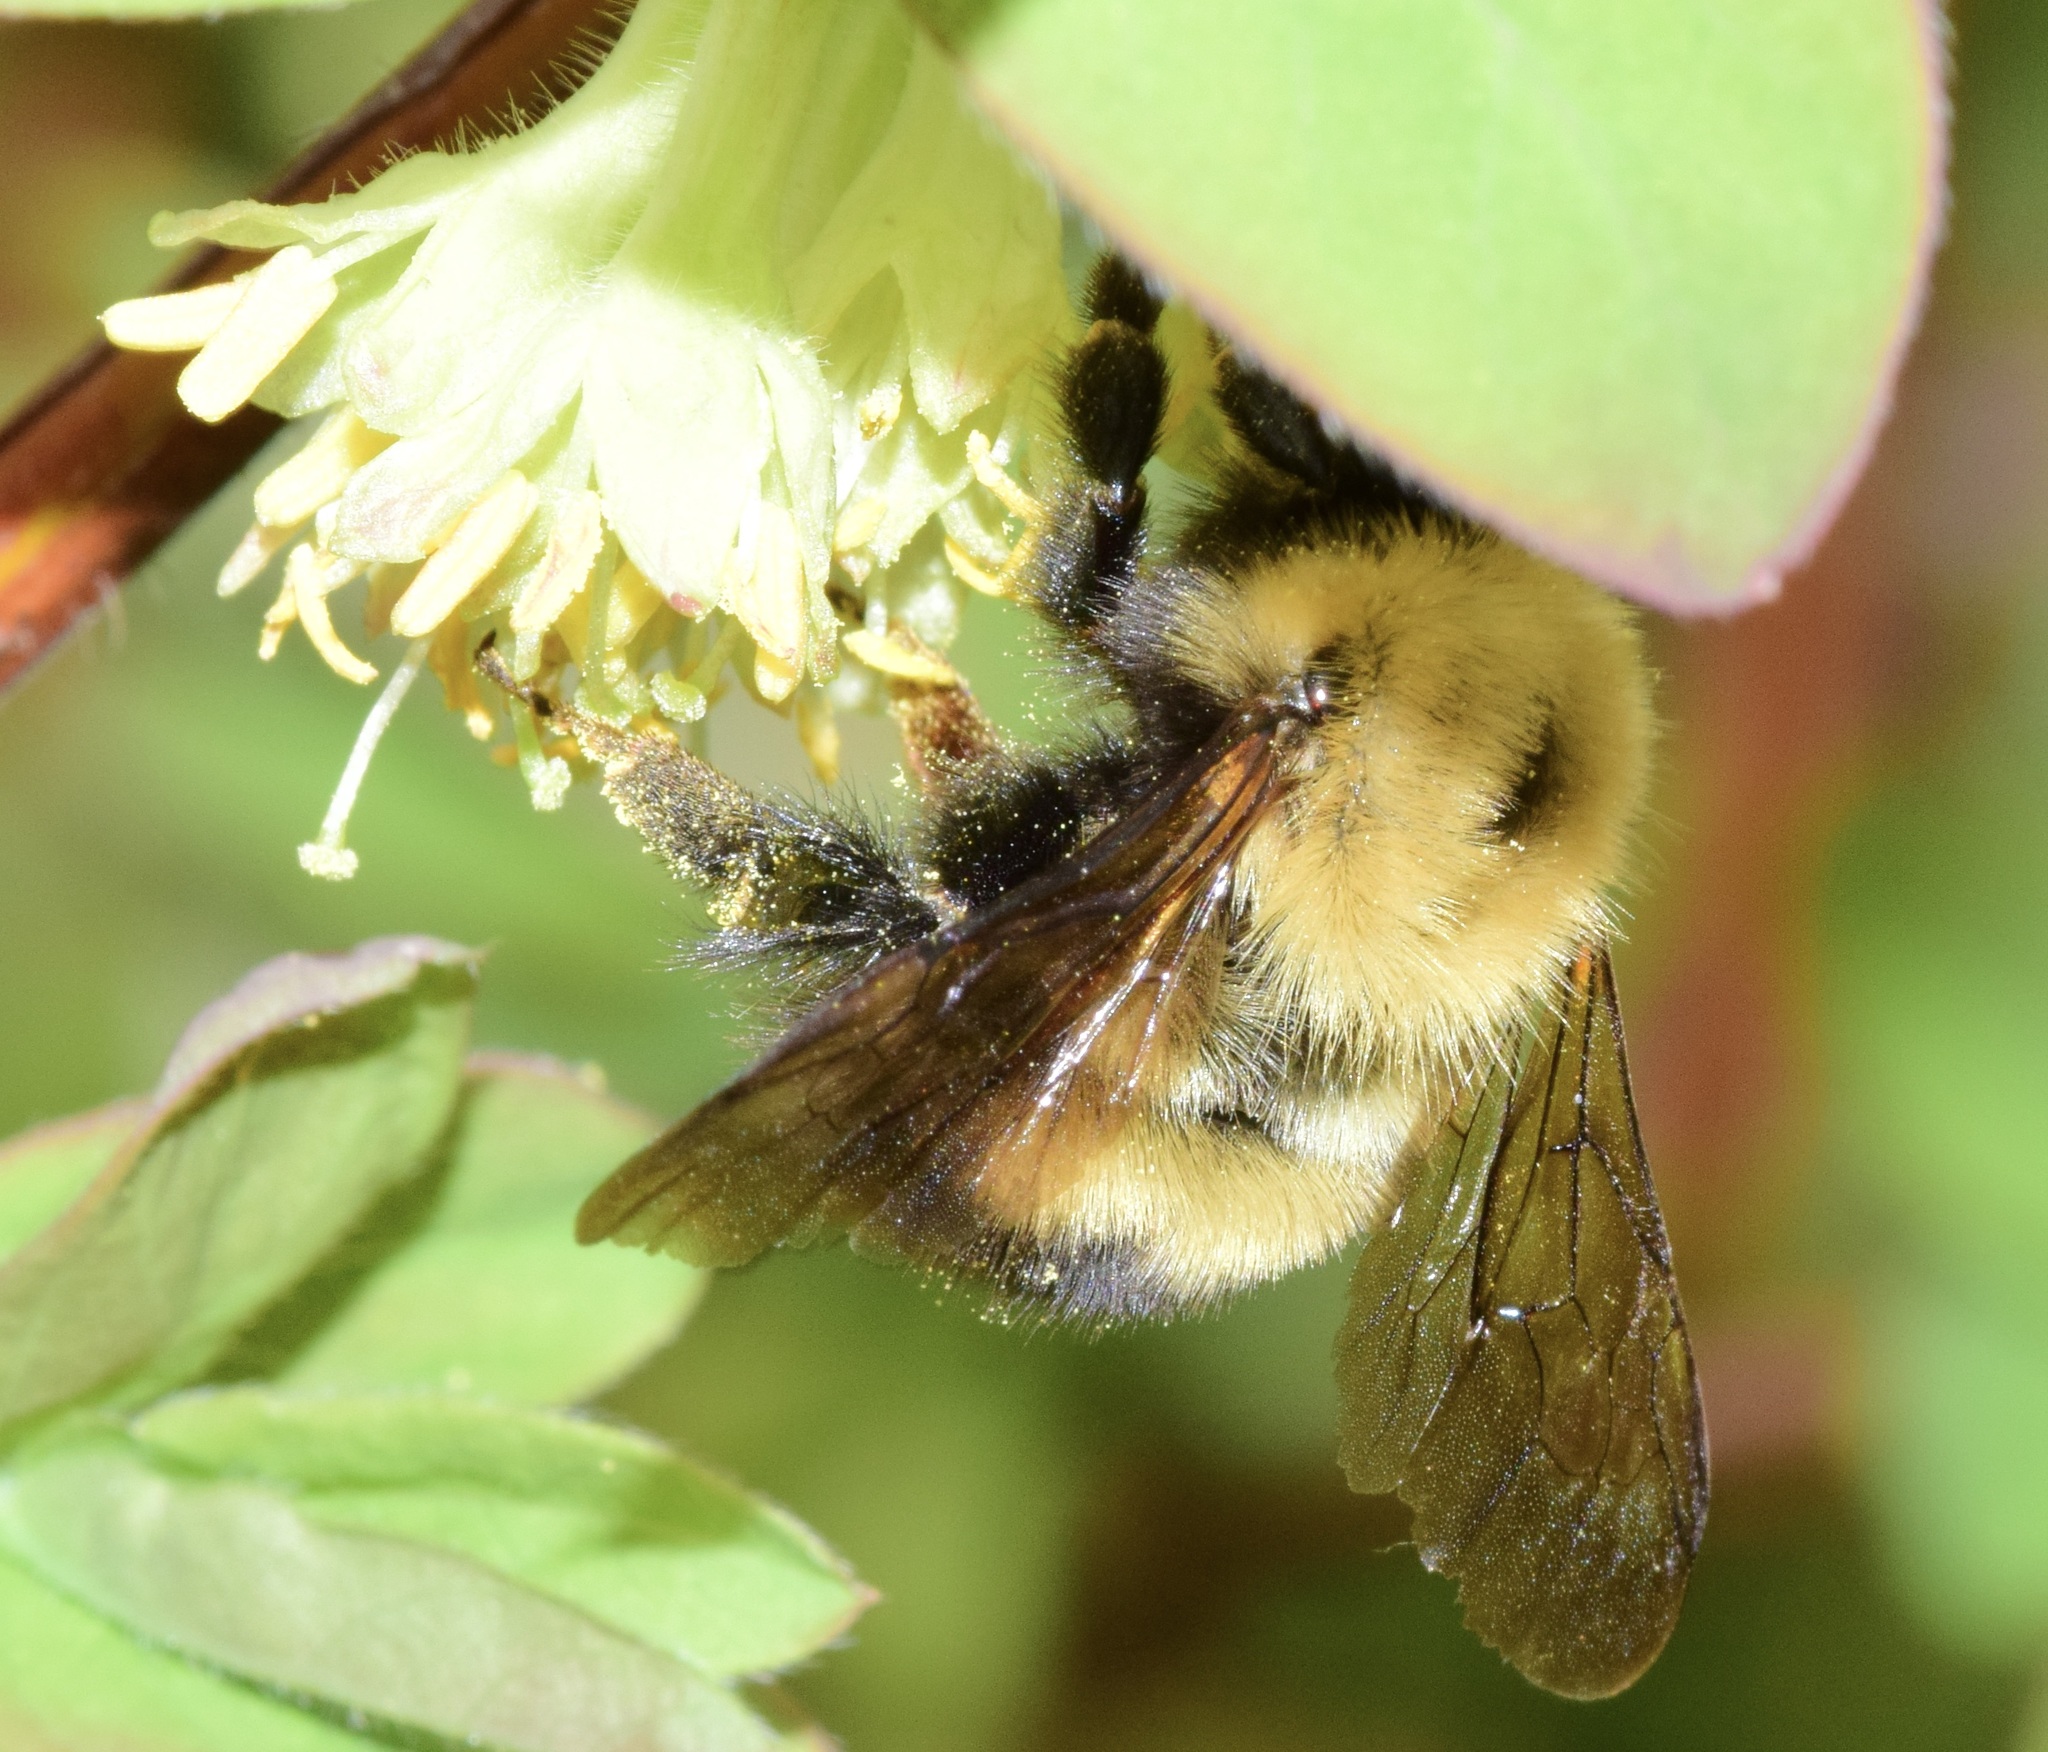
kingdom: Animalia
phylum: Arthropoda
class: Insecta
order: Hymenoptera
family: Apidae
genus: Bombus
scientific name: Bombus perplexus
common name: Confusing bumble bee
